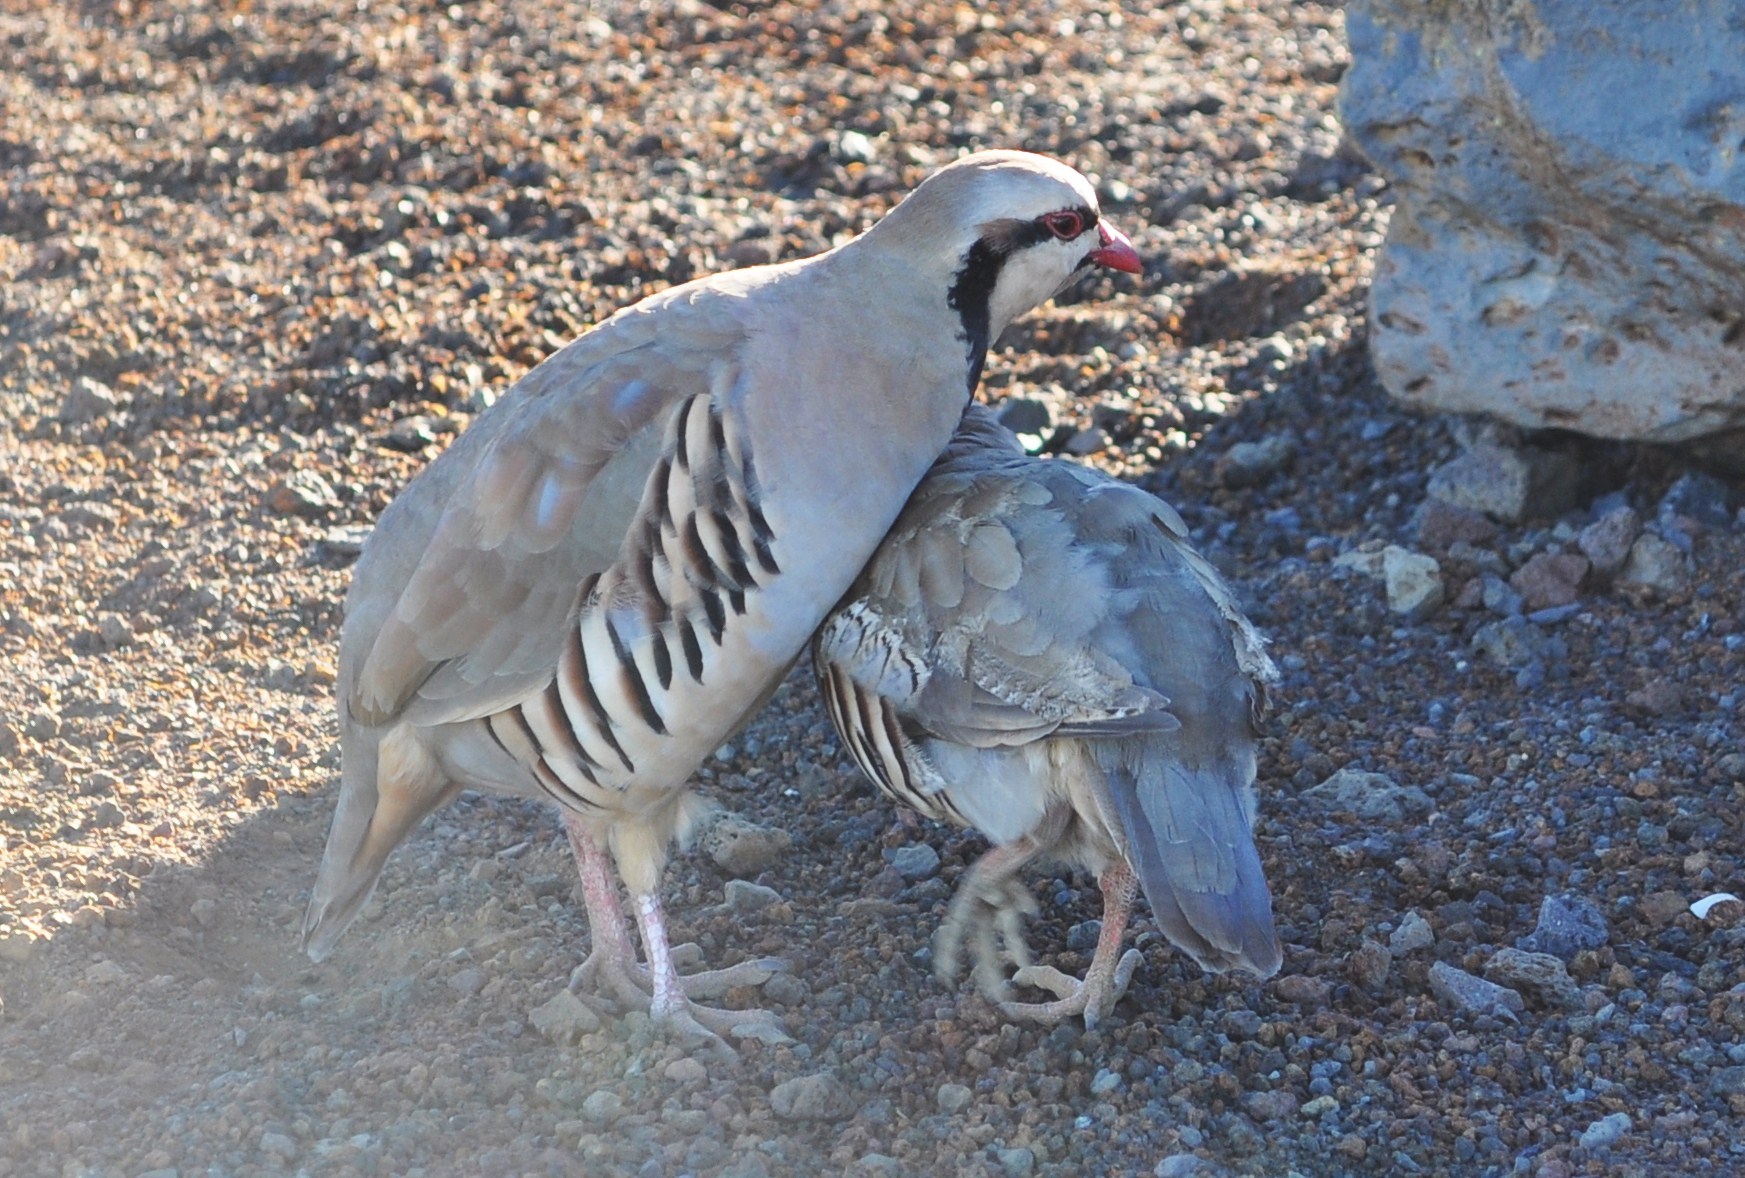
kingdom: Animalia
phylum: Chordata
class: Aves
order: Galliformes
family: Phasianidae
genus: Alectoris
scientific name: Alectoris chukar
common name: Chukar
